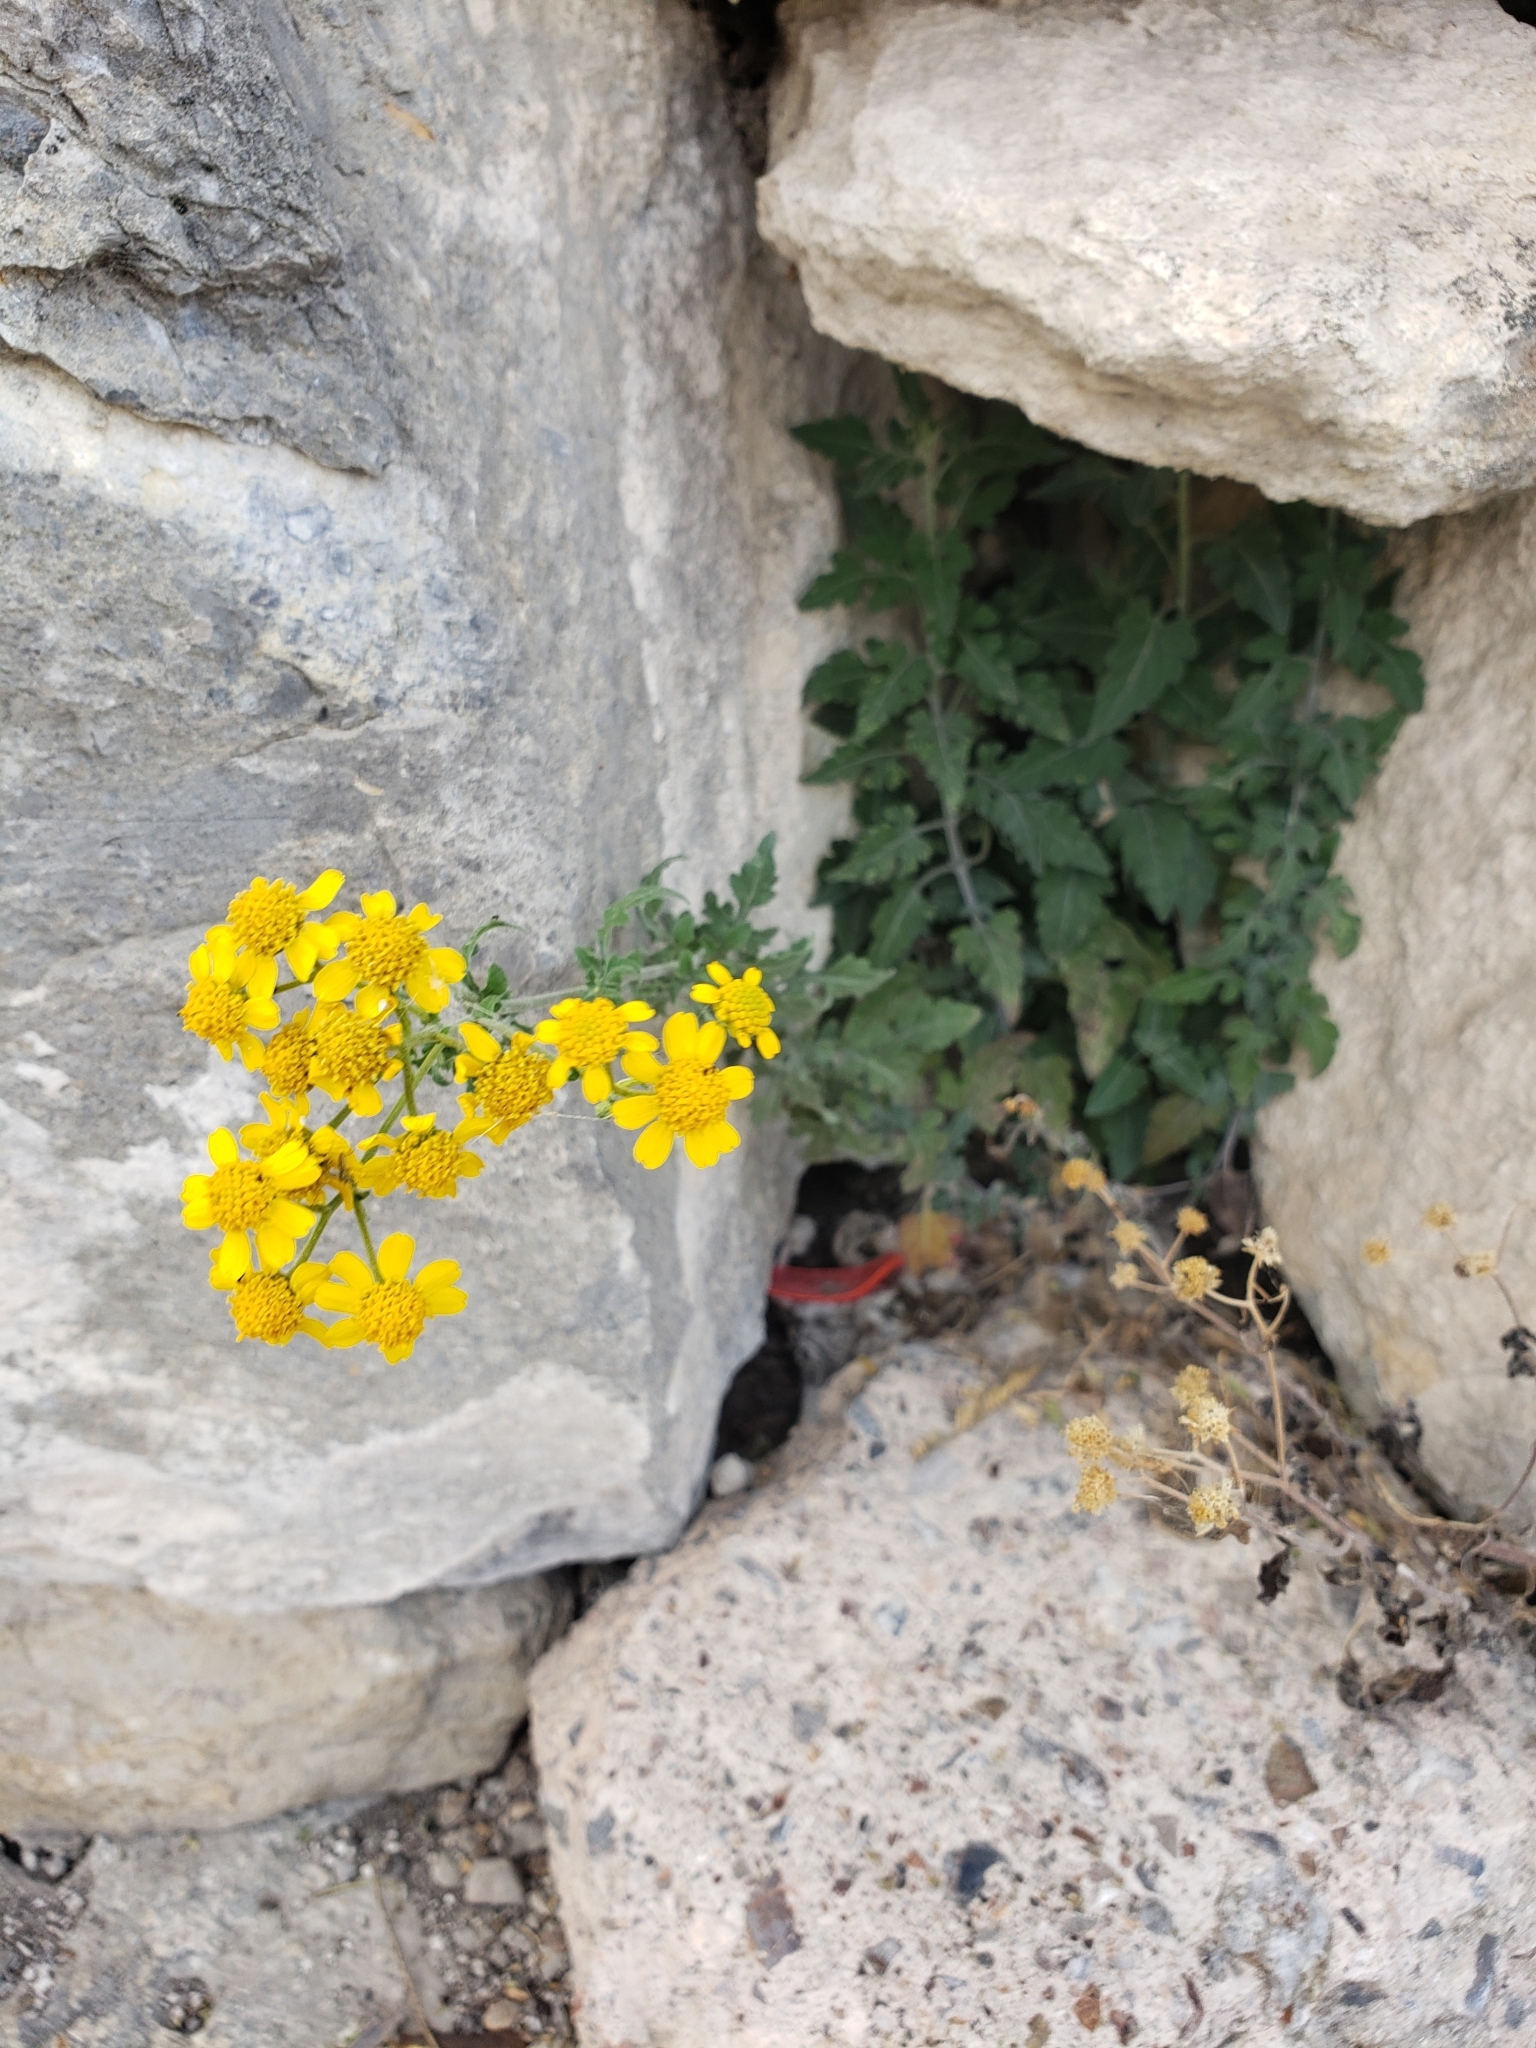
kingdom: Plantae
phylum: Tracheophyta
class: Magnoliopsida
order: Asterales
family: Asteraceae
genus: Zaluzania
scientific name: Zaluzania triloba
